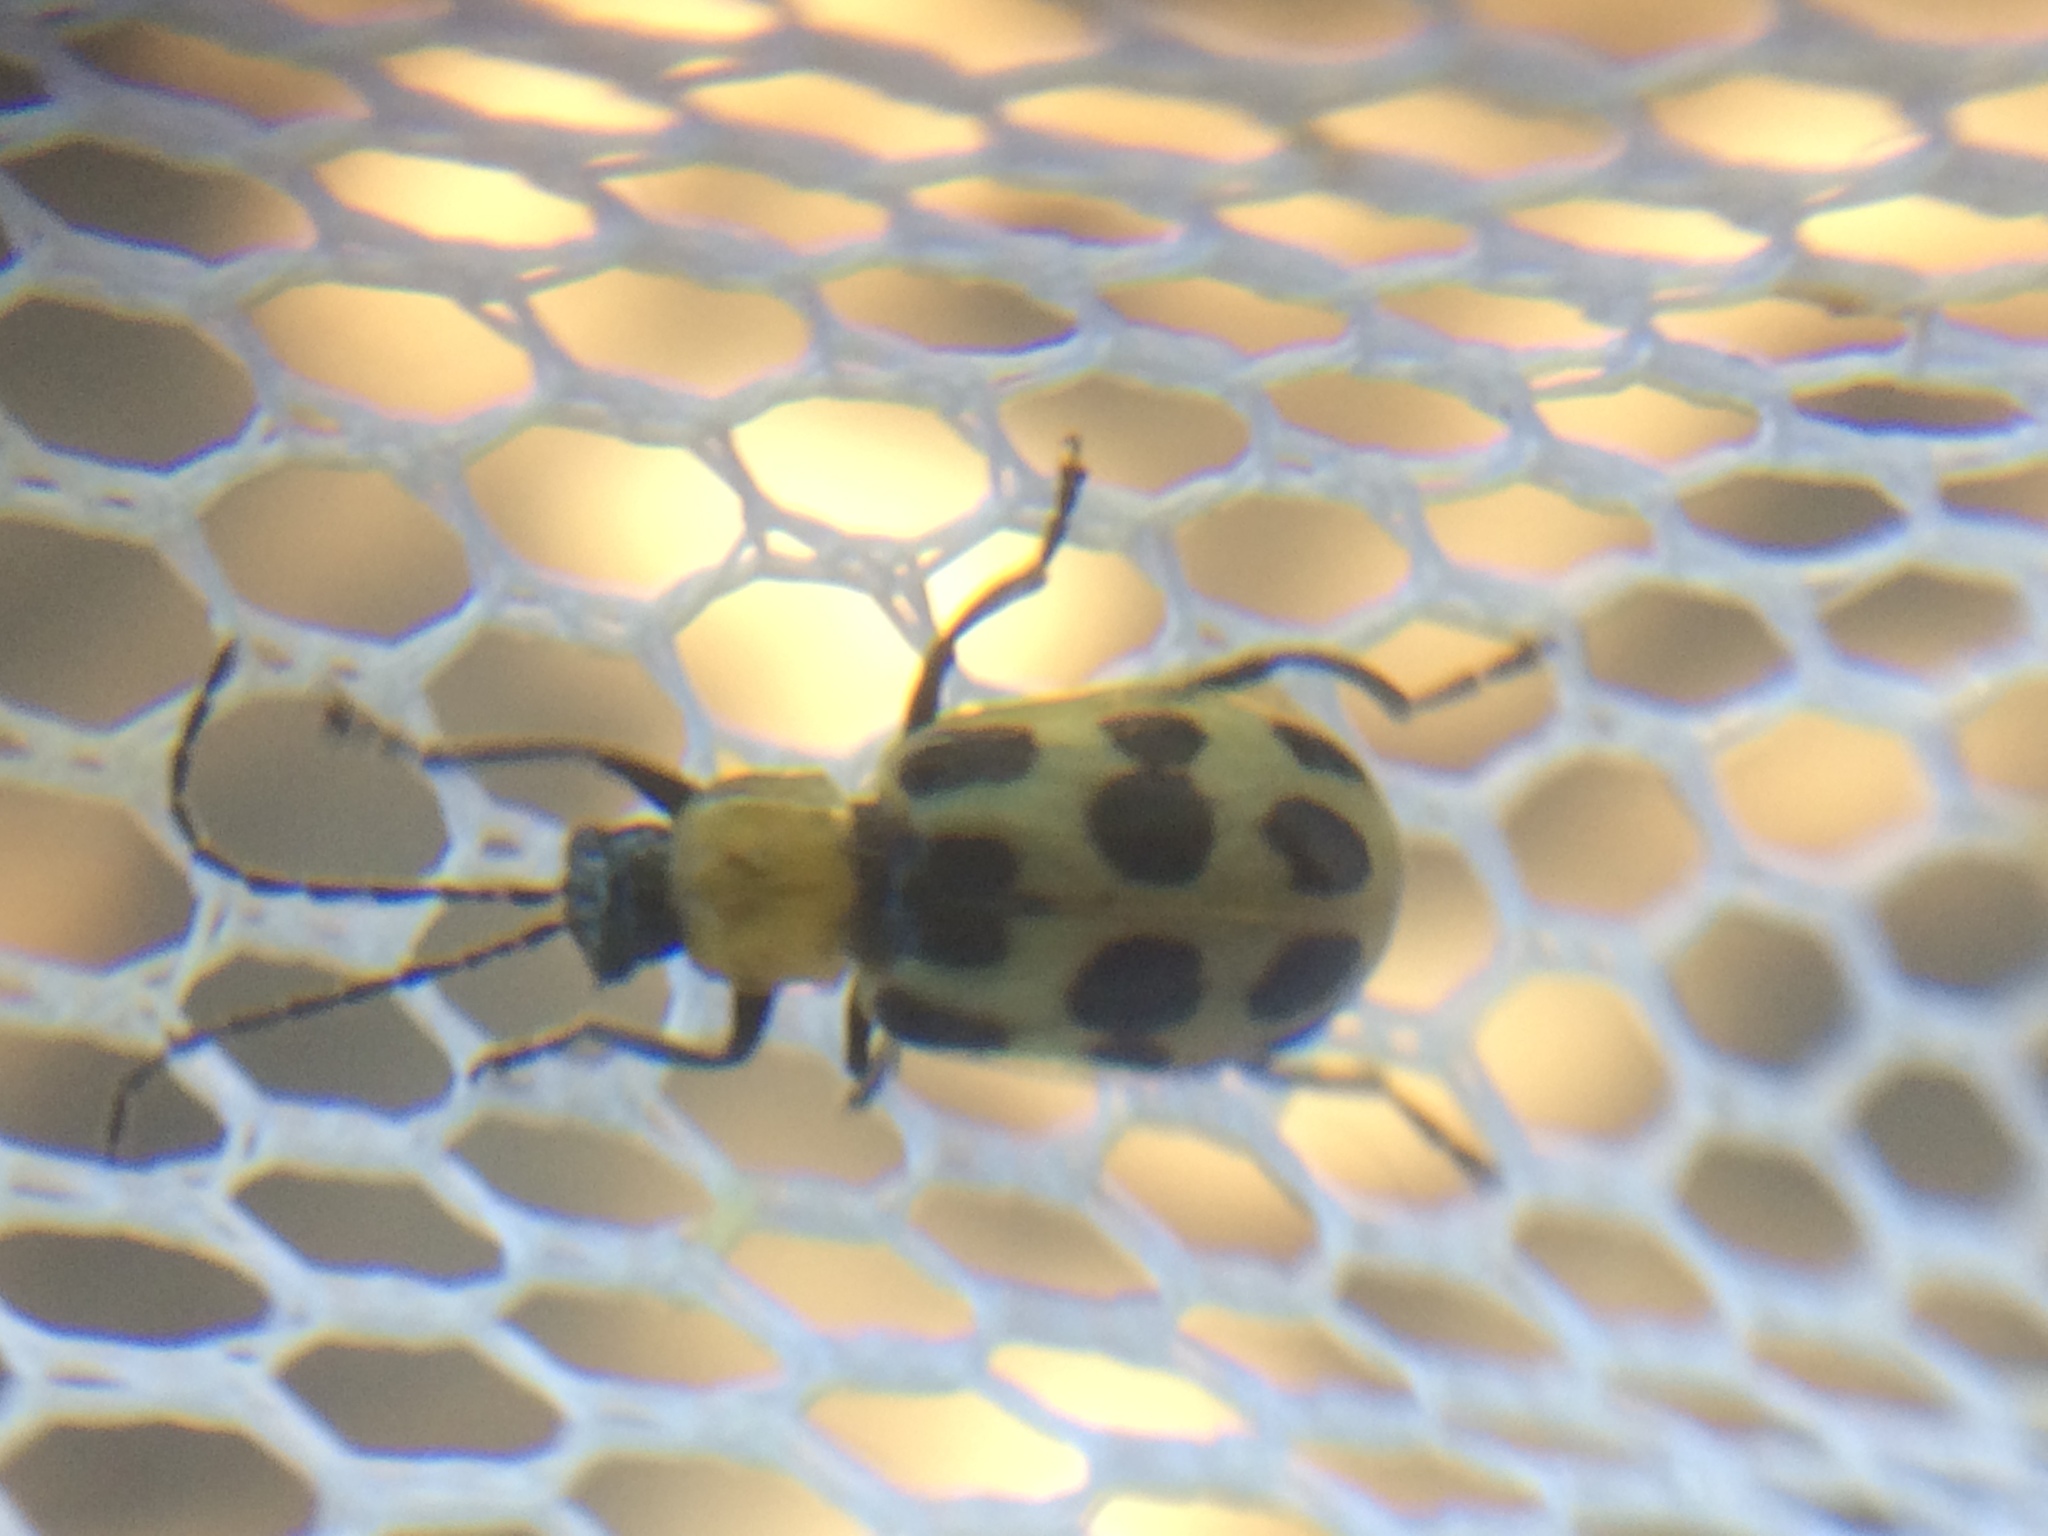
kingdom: Animalia
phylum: Arthropoda
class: Insecta
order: Coleoptera
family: Chrysomelidae
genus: Diabrotica
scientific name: Diabrotica undecimpunctata
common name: Spotted cucumber beetle
